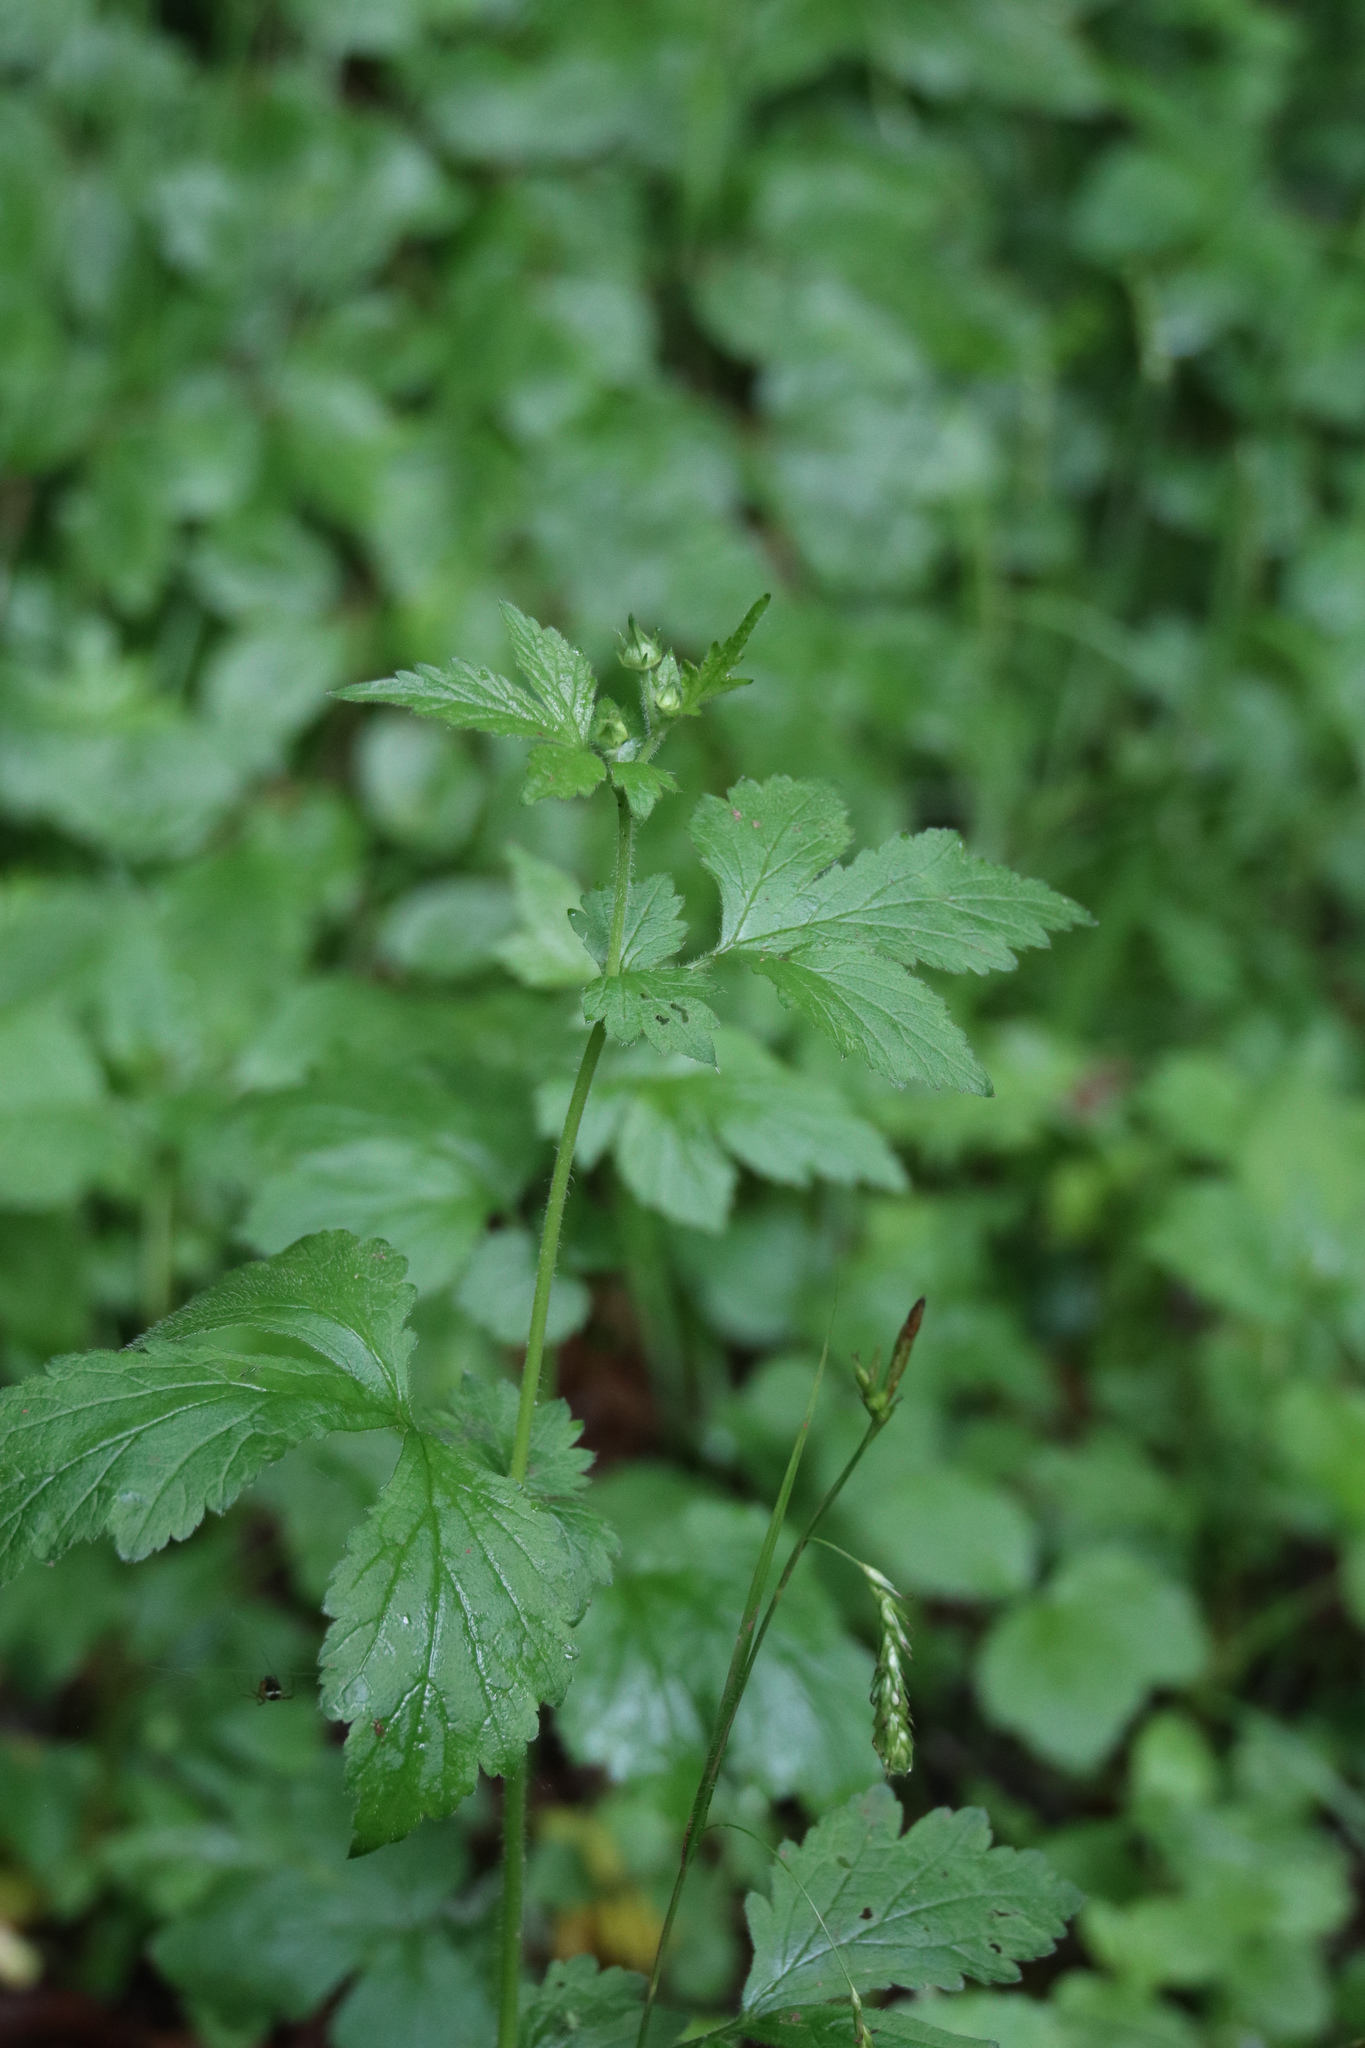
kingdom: Plantae
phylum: Tracheophyta
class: Magnoliopsida
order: Rosales
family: Rosaceae
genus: Geum
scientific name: Geum urbanum
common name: Wood avens
